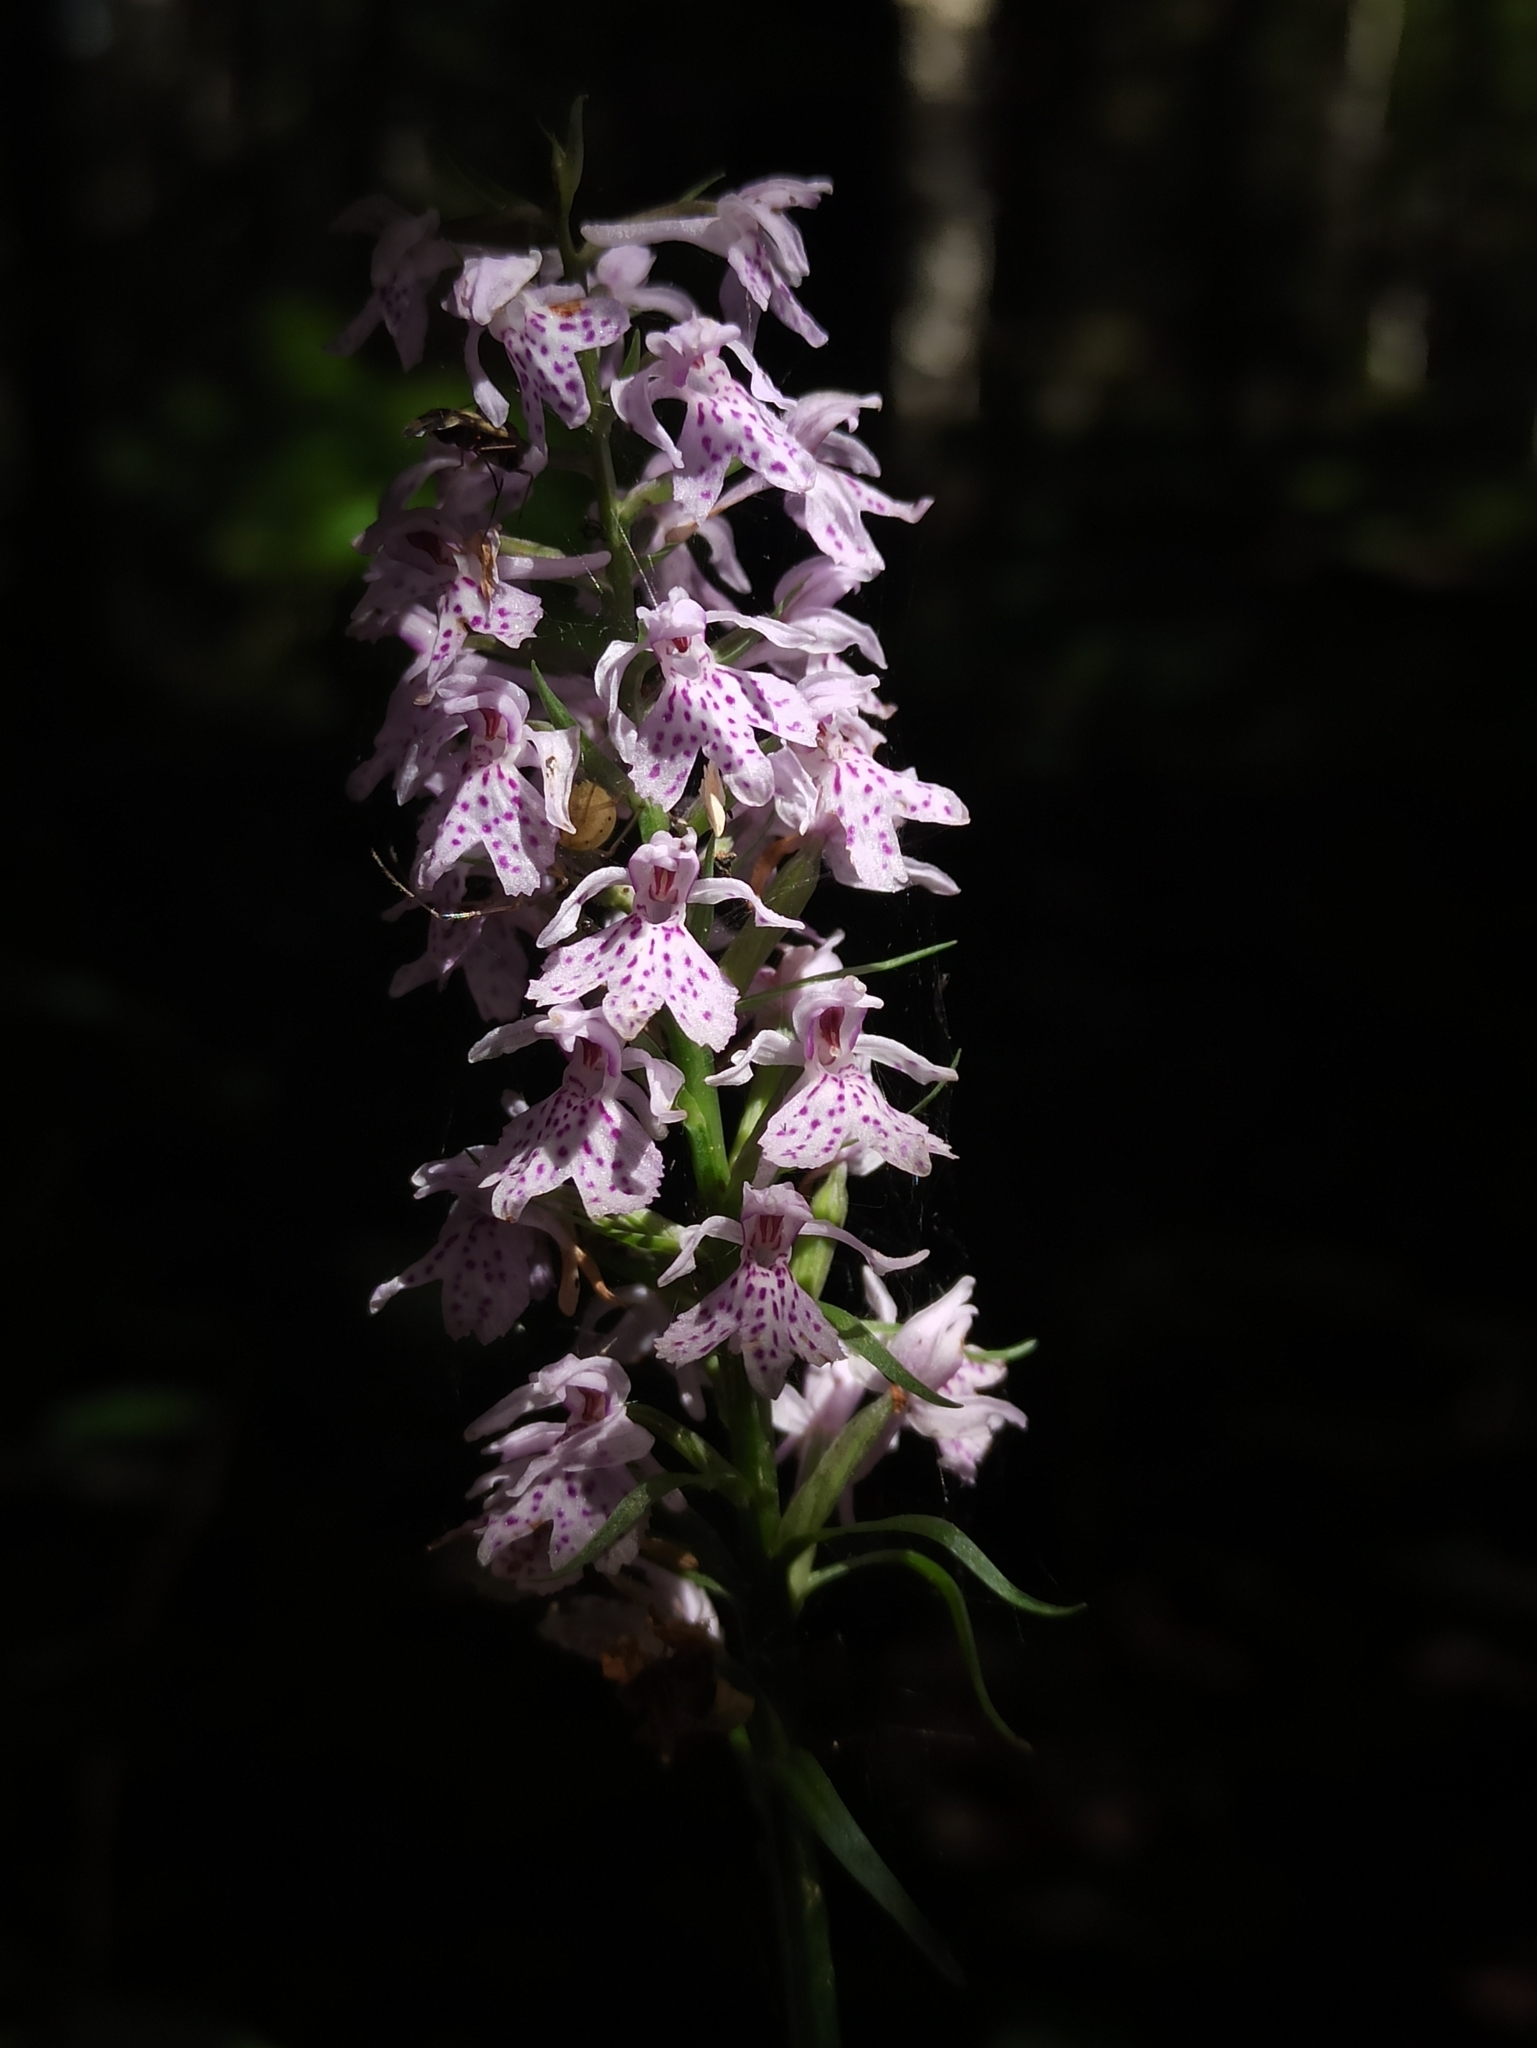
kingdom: Plantae
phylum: Tracheophyta
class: Liliopsida
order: Asparagales
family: Orchidaceae
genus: Dactylorhiza
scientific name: Dactylorhiza maculata
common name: Heath spotted-orchid
